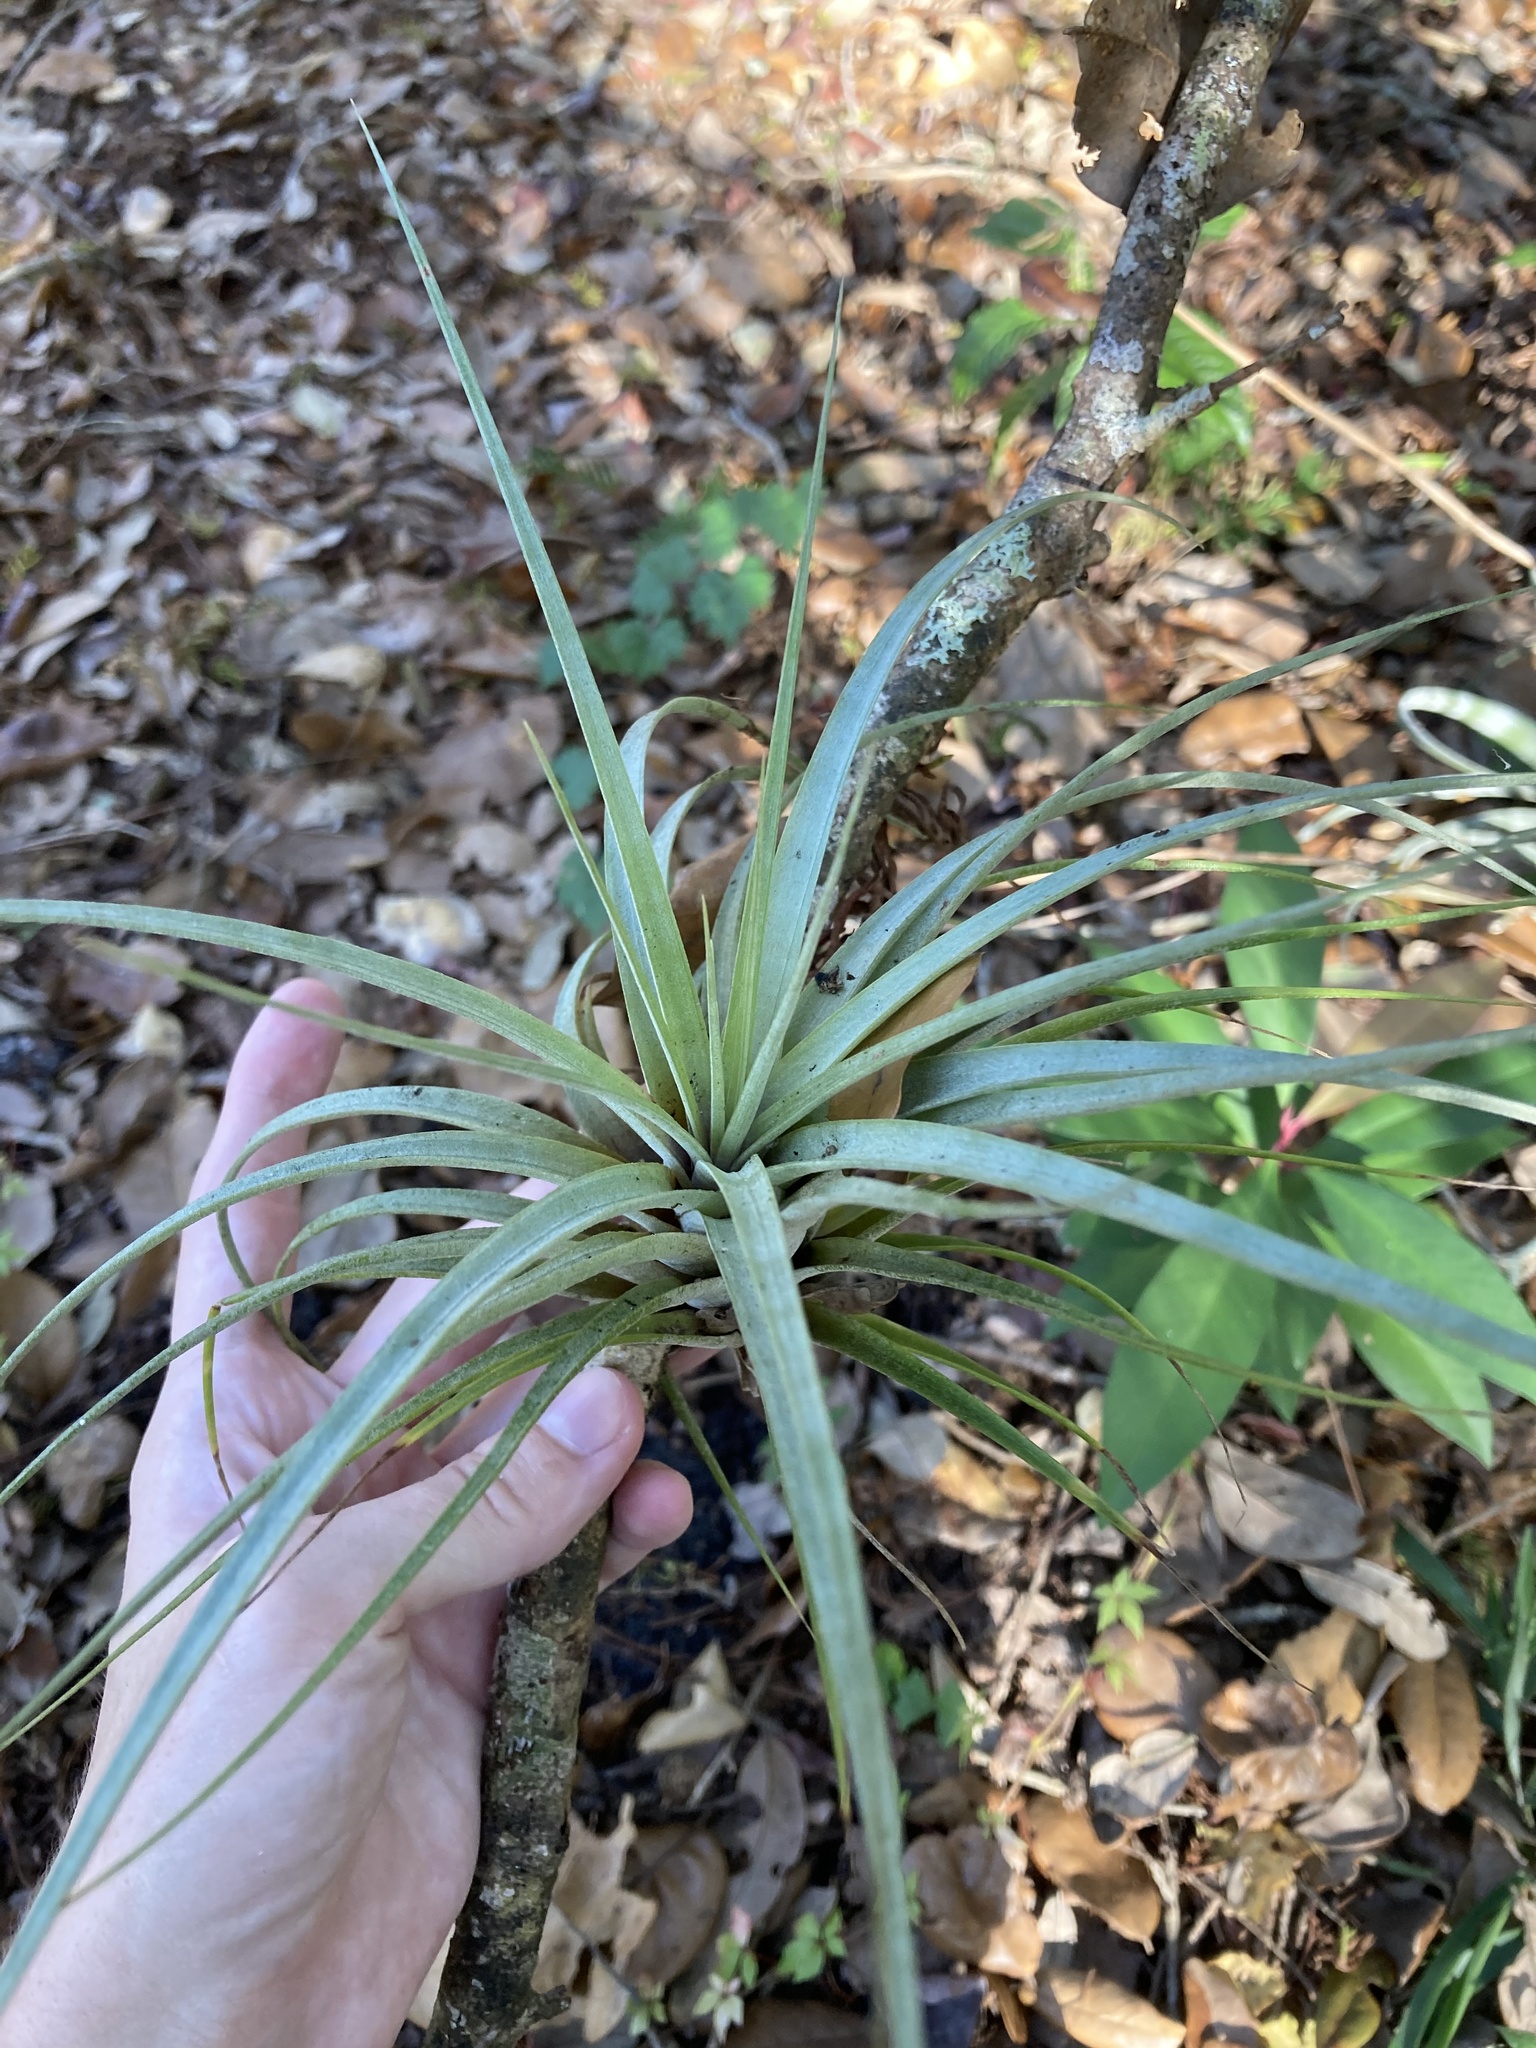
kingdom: Plantae
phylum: Tracheophyta
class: Liliopsida
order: Poales
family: Bromeliaceae
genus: Tillandsia
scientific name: Tillandsia fasciculata
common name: Giant airplant
